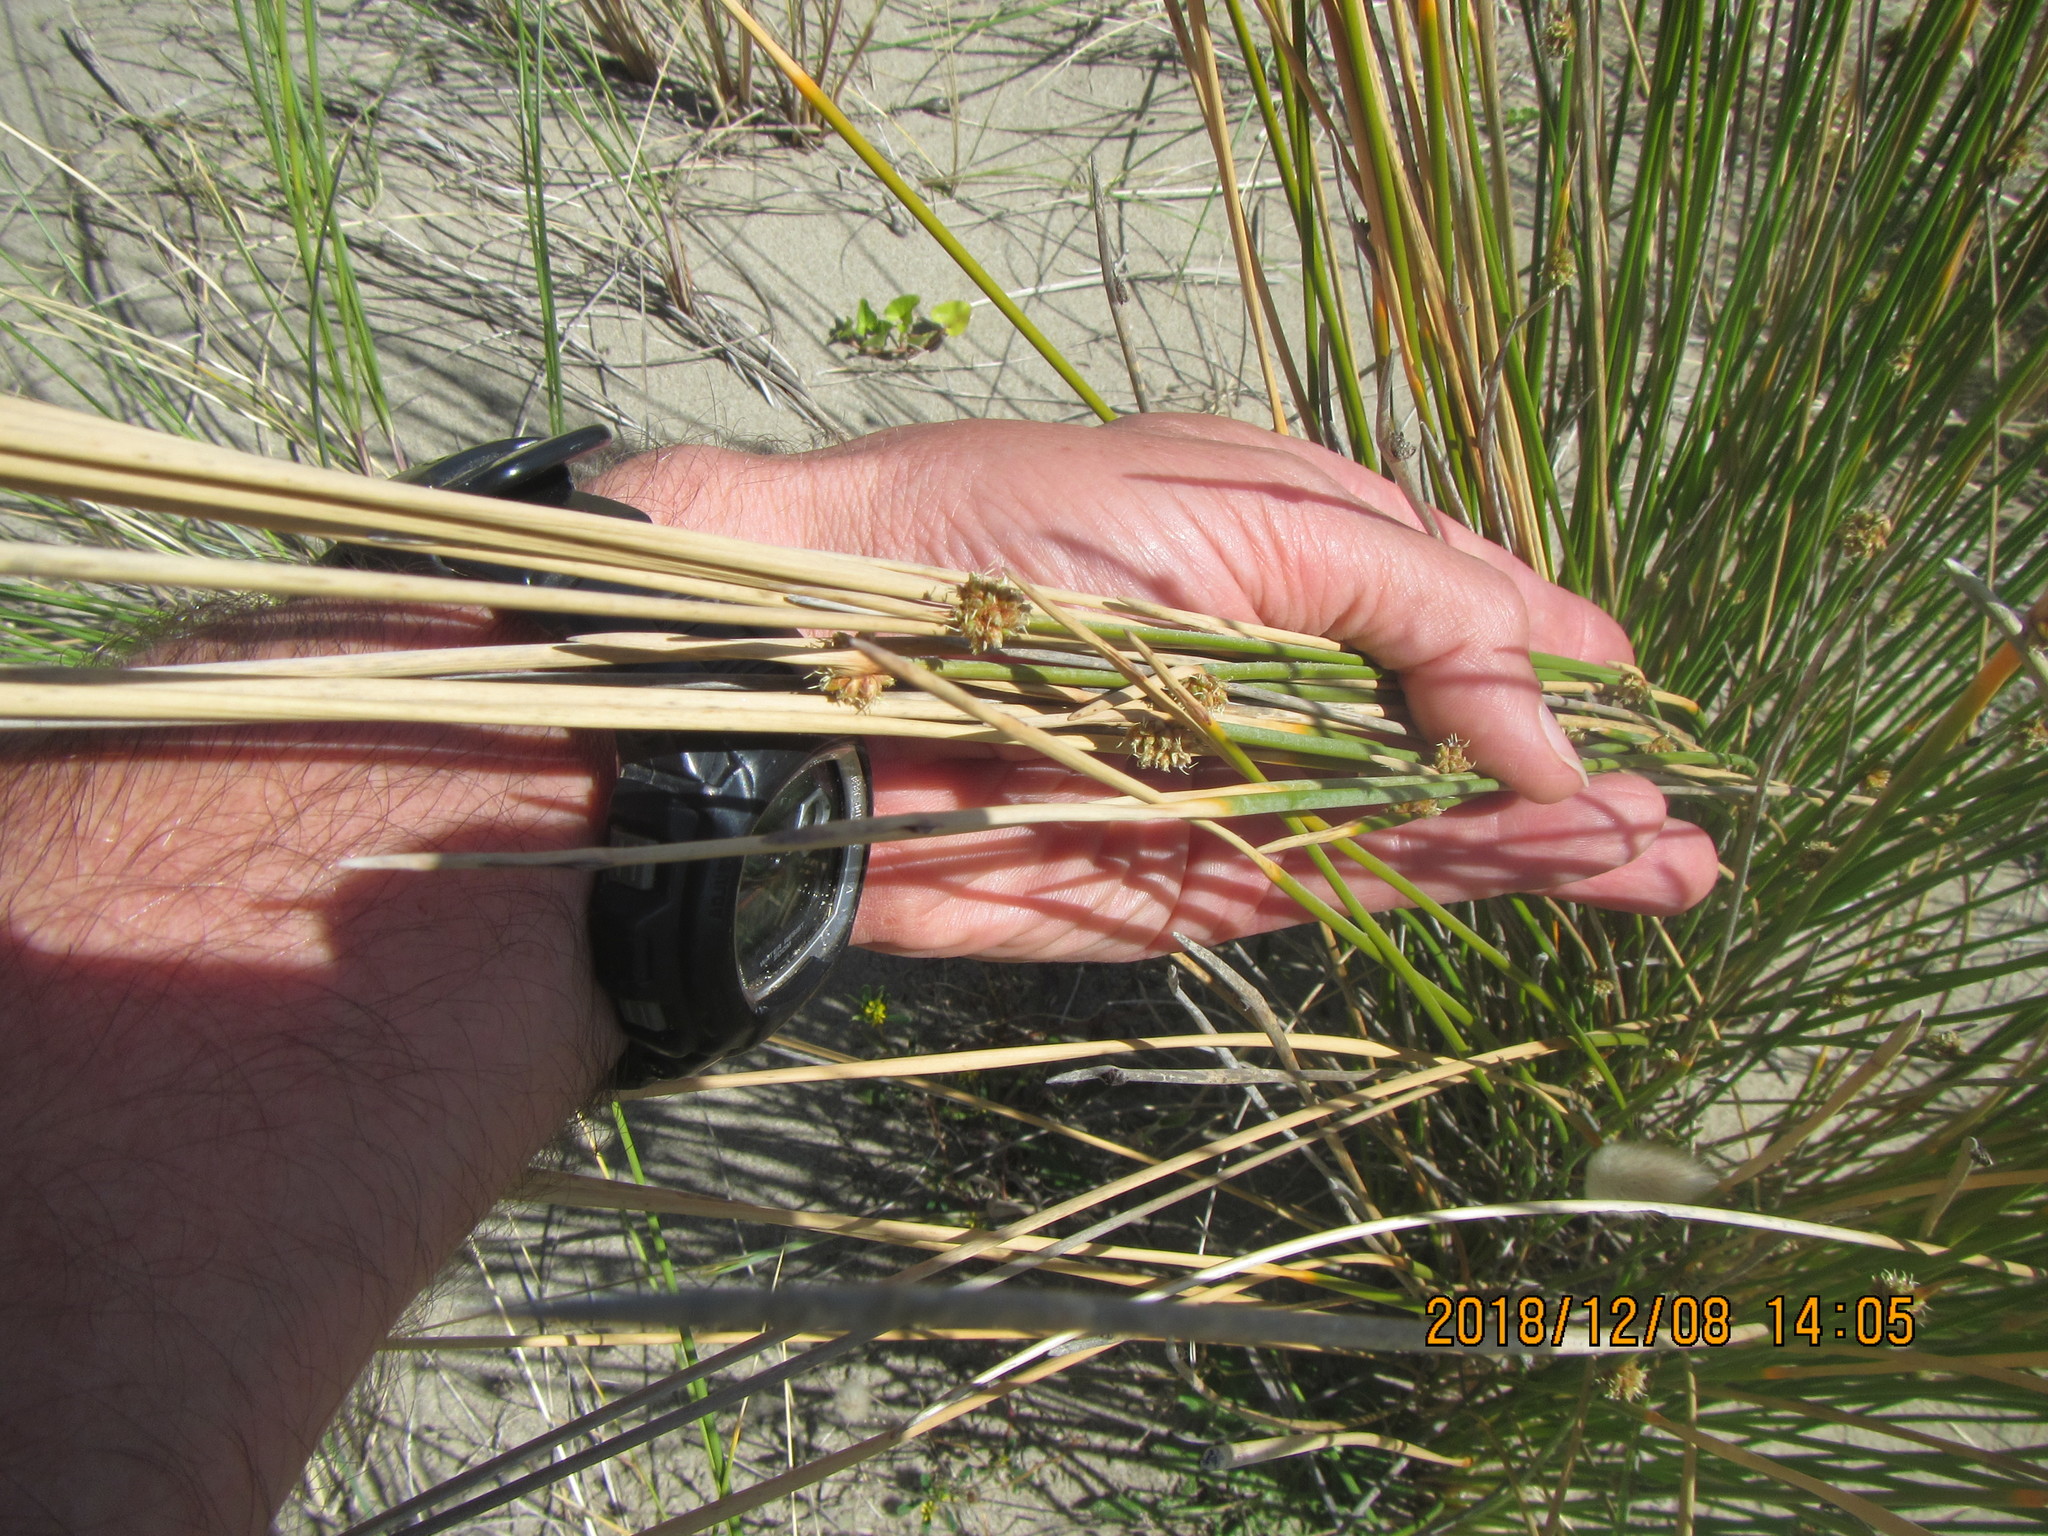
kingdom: Plantae
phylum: Tracheophyta
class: Liliopsida
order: Poales
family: Cyperaceae
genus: Ficinia
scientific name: Ficinia nodosa
